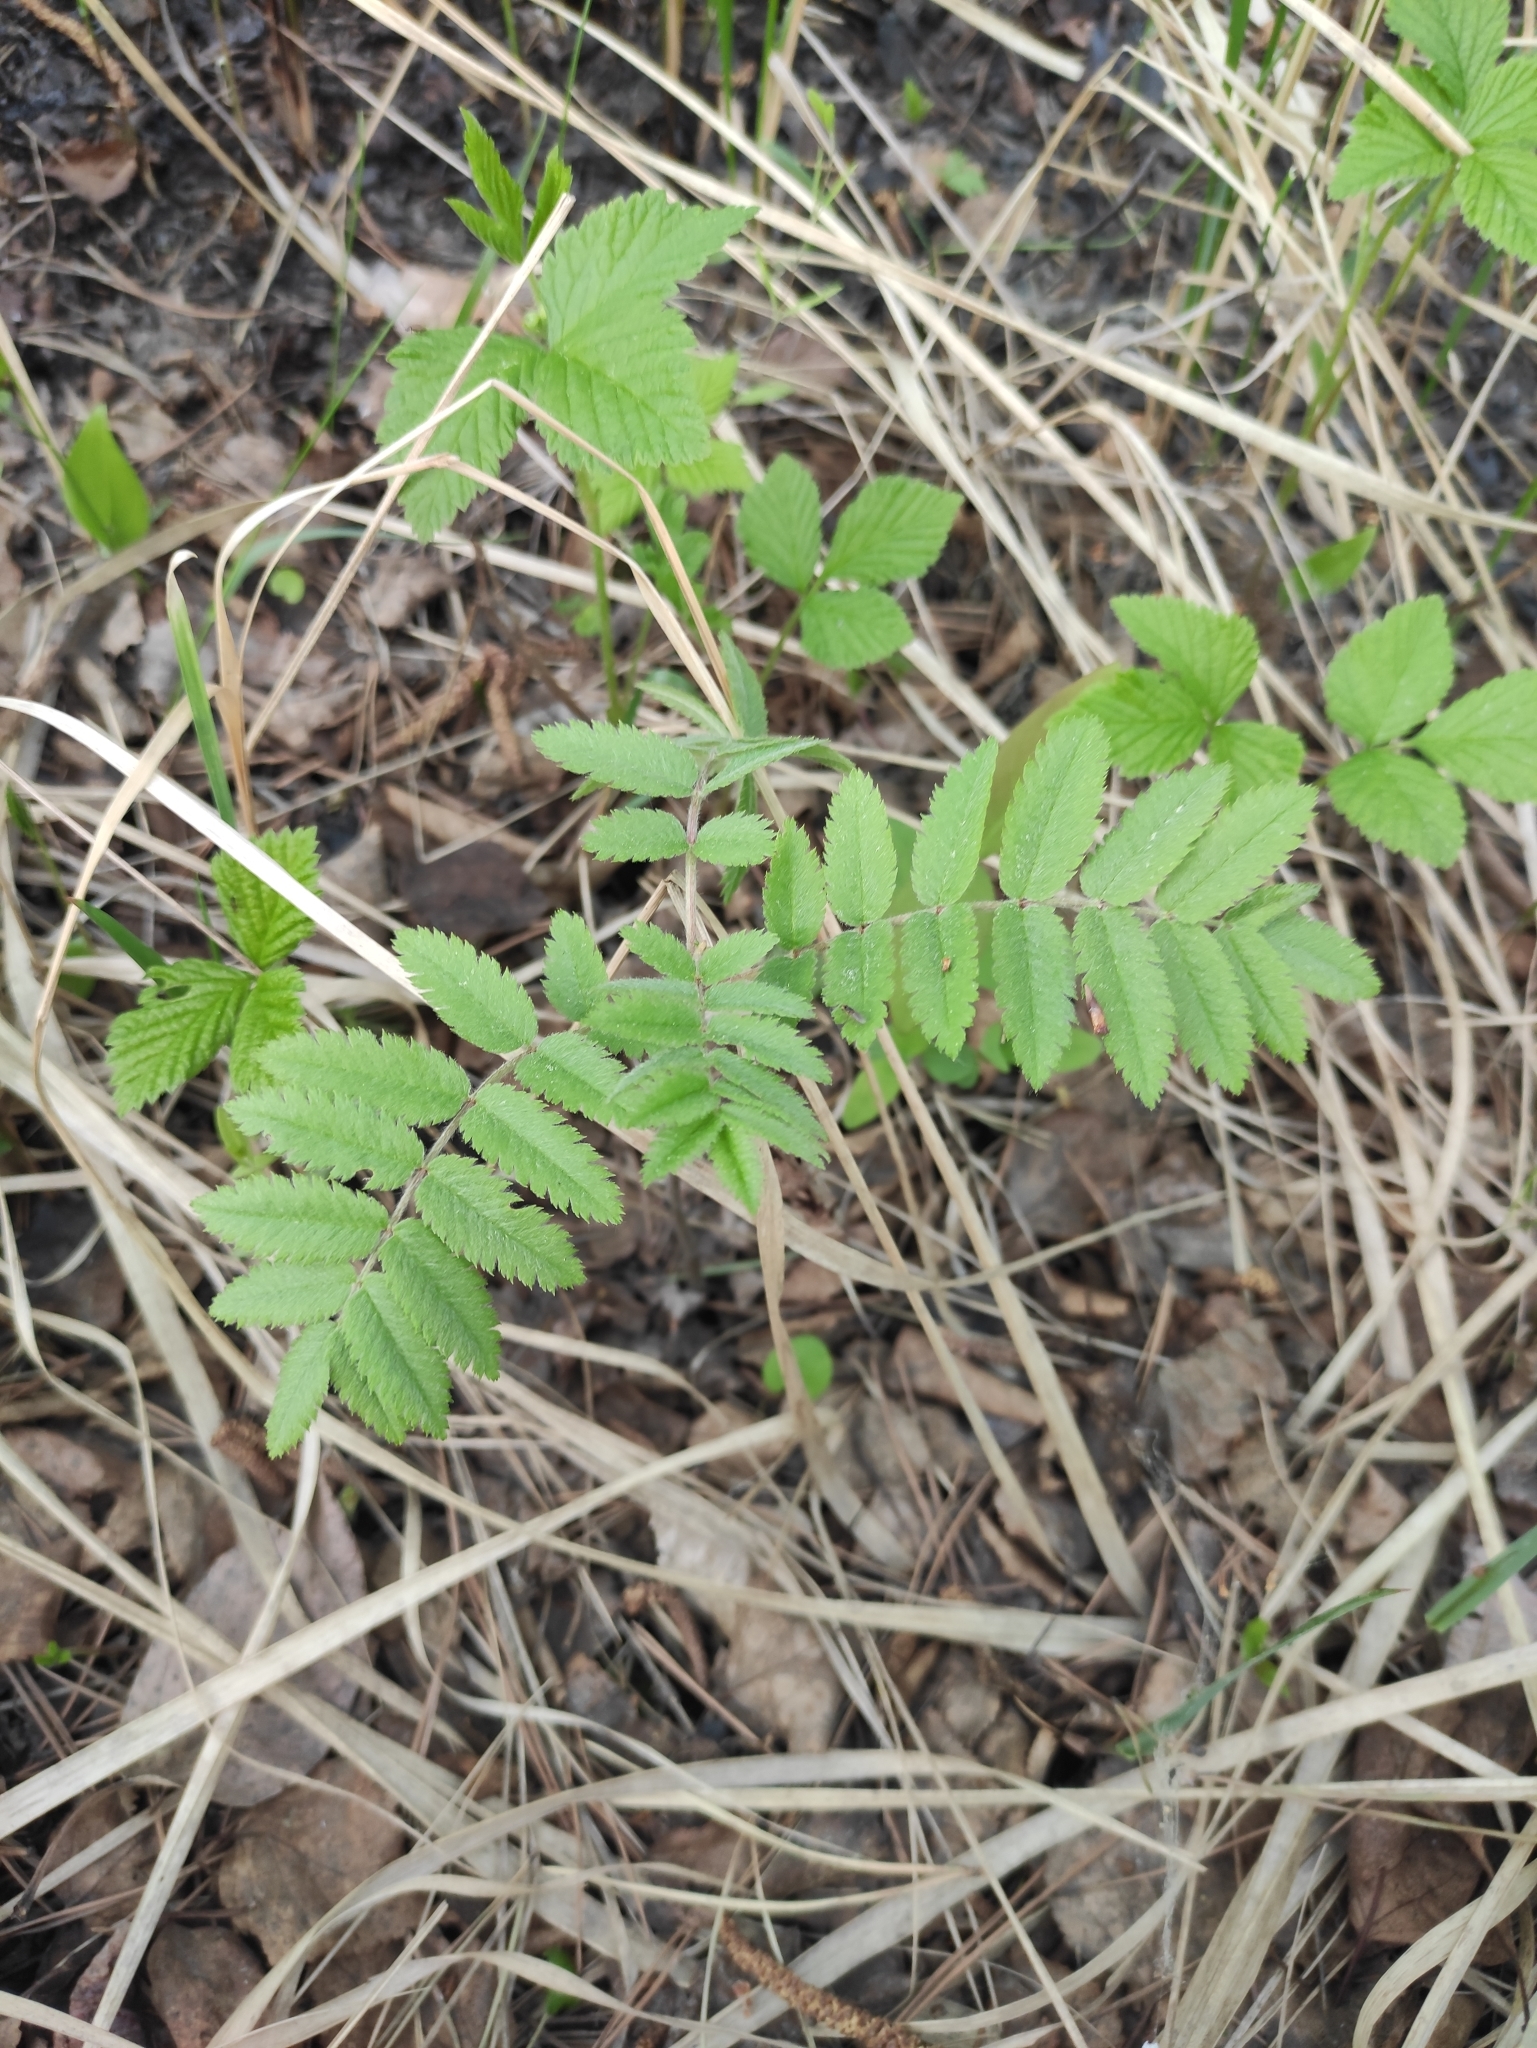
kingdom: Plantae
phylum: Tracheophyta
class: Magnoliopsida
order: Rosales
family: Rosaceae
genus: Sorbus
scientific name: Sorbus aucuparia
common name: Rowan
